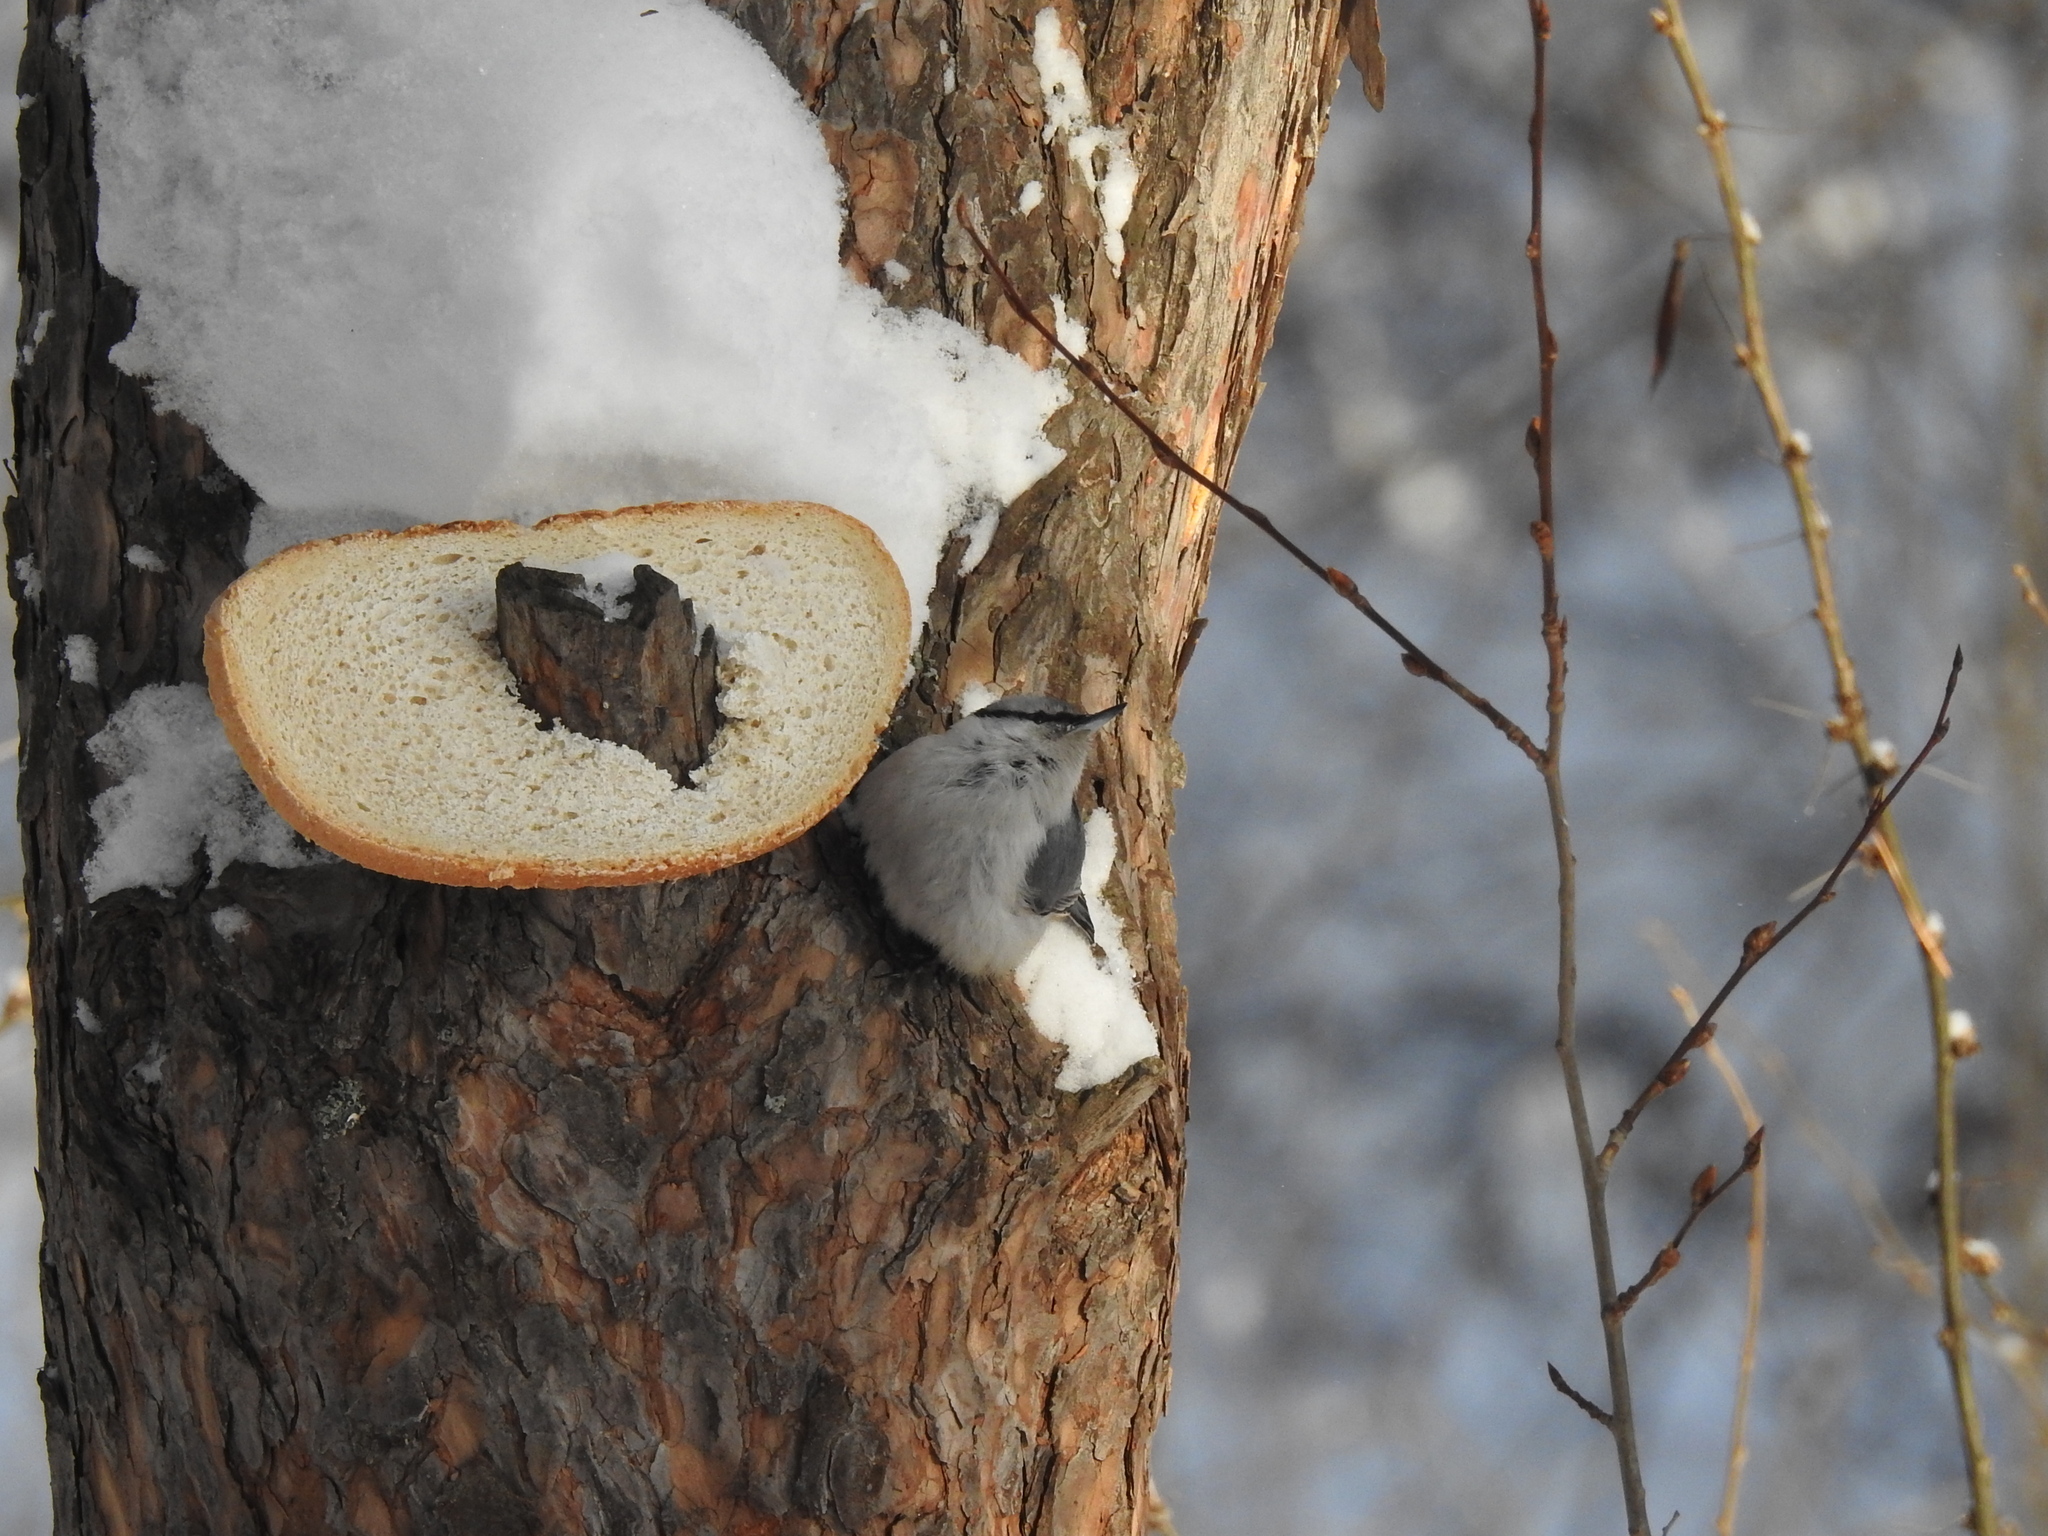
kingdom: Animalia
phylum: Chordata
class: Aves
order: Passeriformes
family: Sittidae
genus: Sitta
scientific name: Sitta europaea
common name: Eurasian nuthatch
